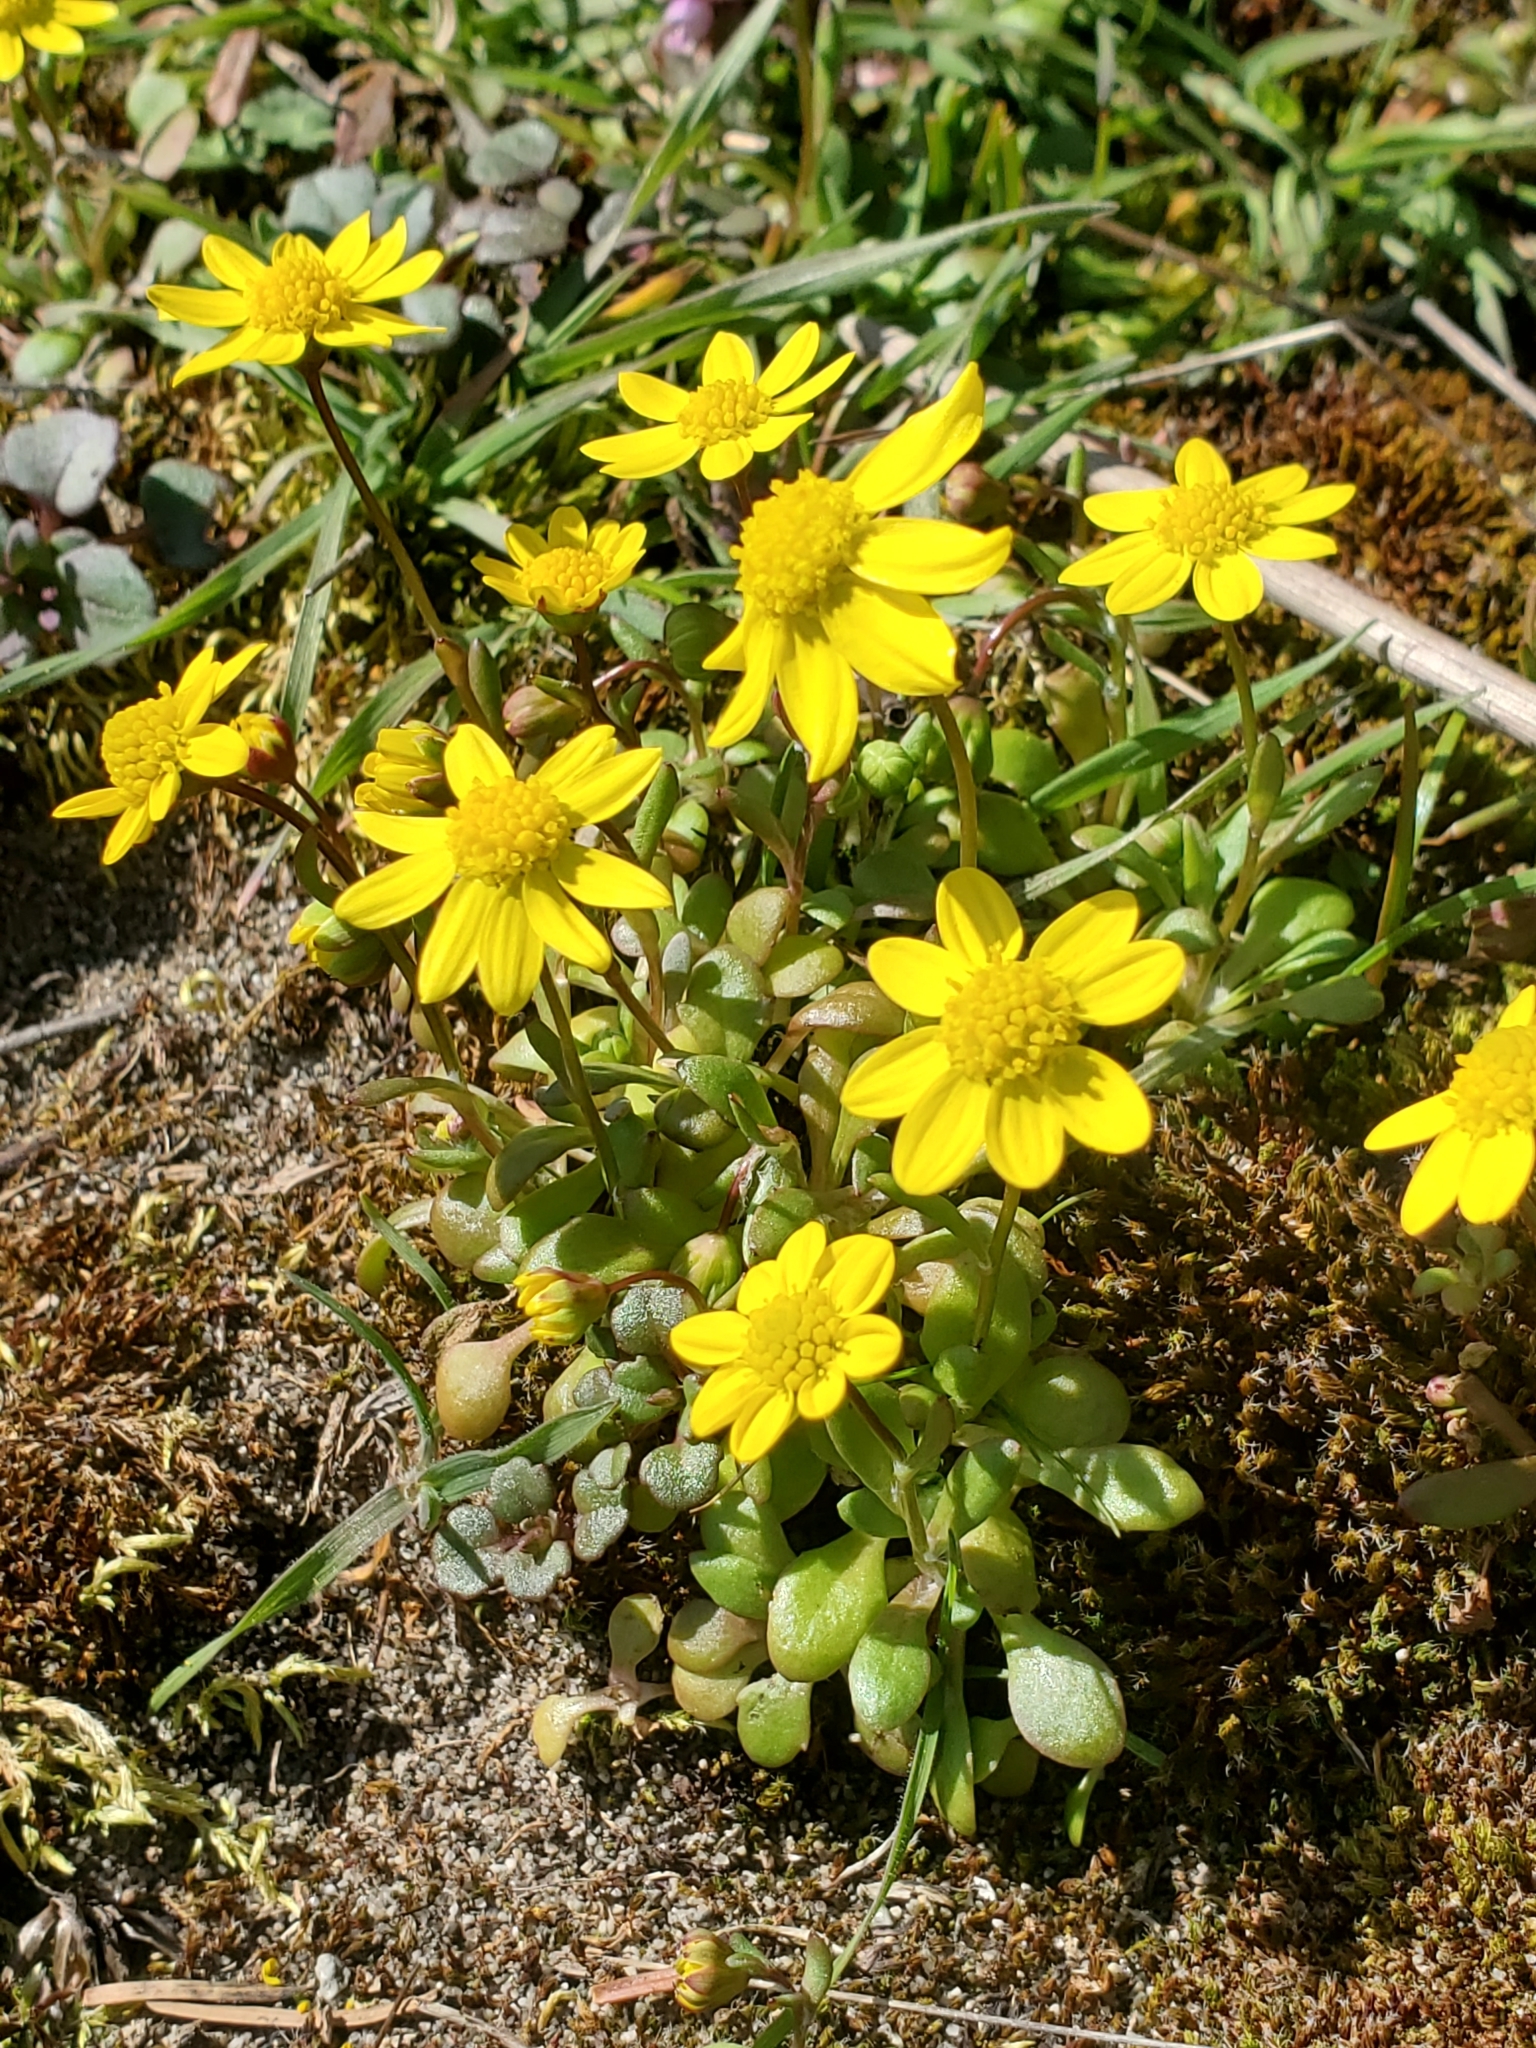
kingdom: Plantae
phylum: Tracheophyta
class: Magnoliopsida
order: Asterales
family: Asteraceae
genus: Crocidium
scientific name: Crocidium multicaule
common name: Common spring gold
